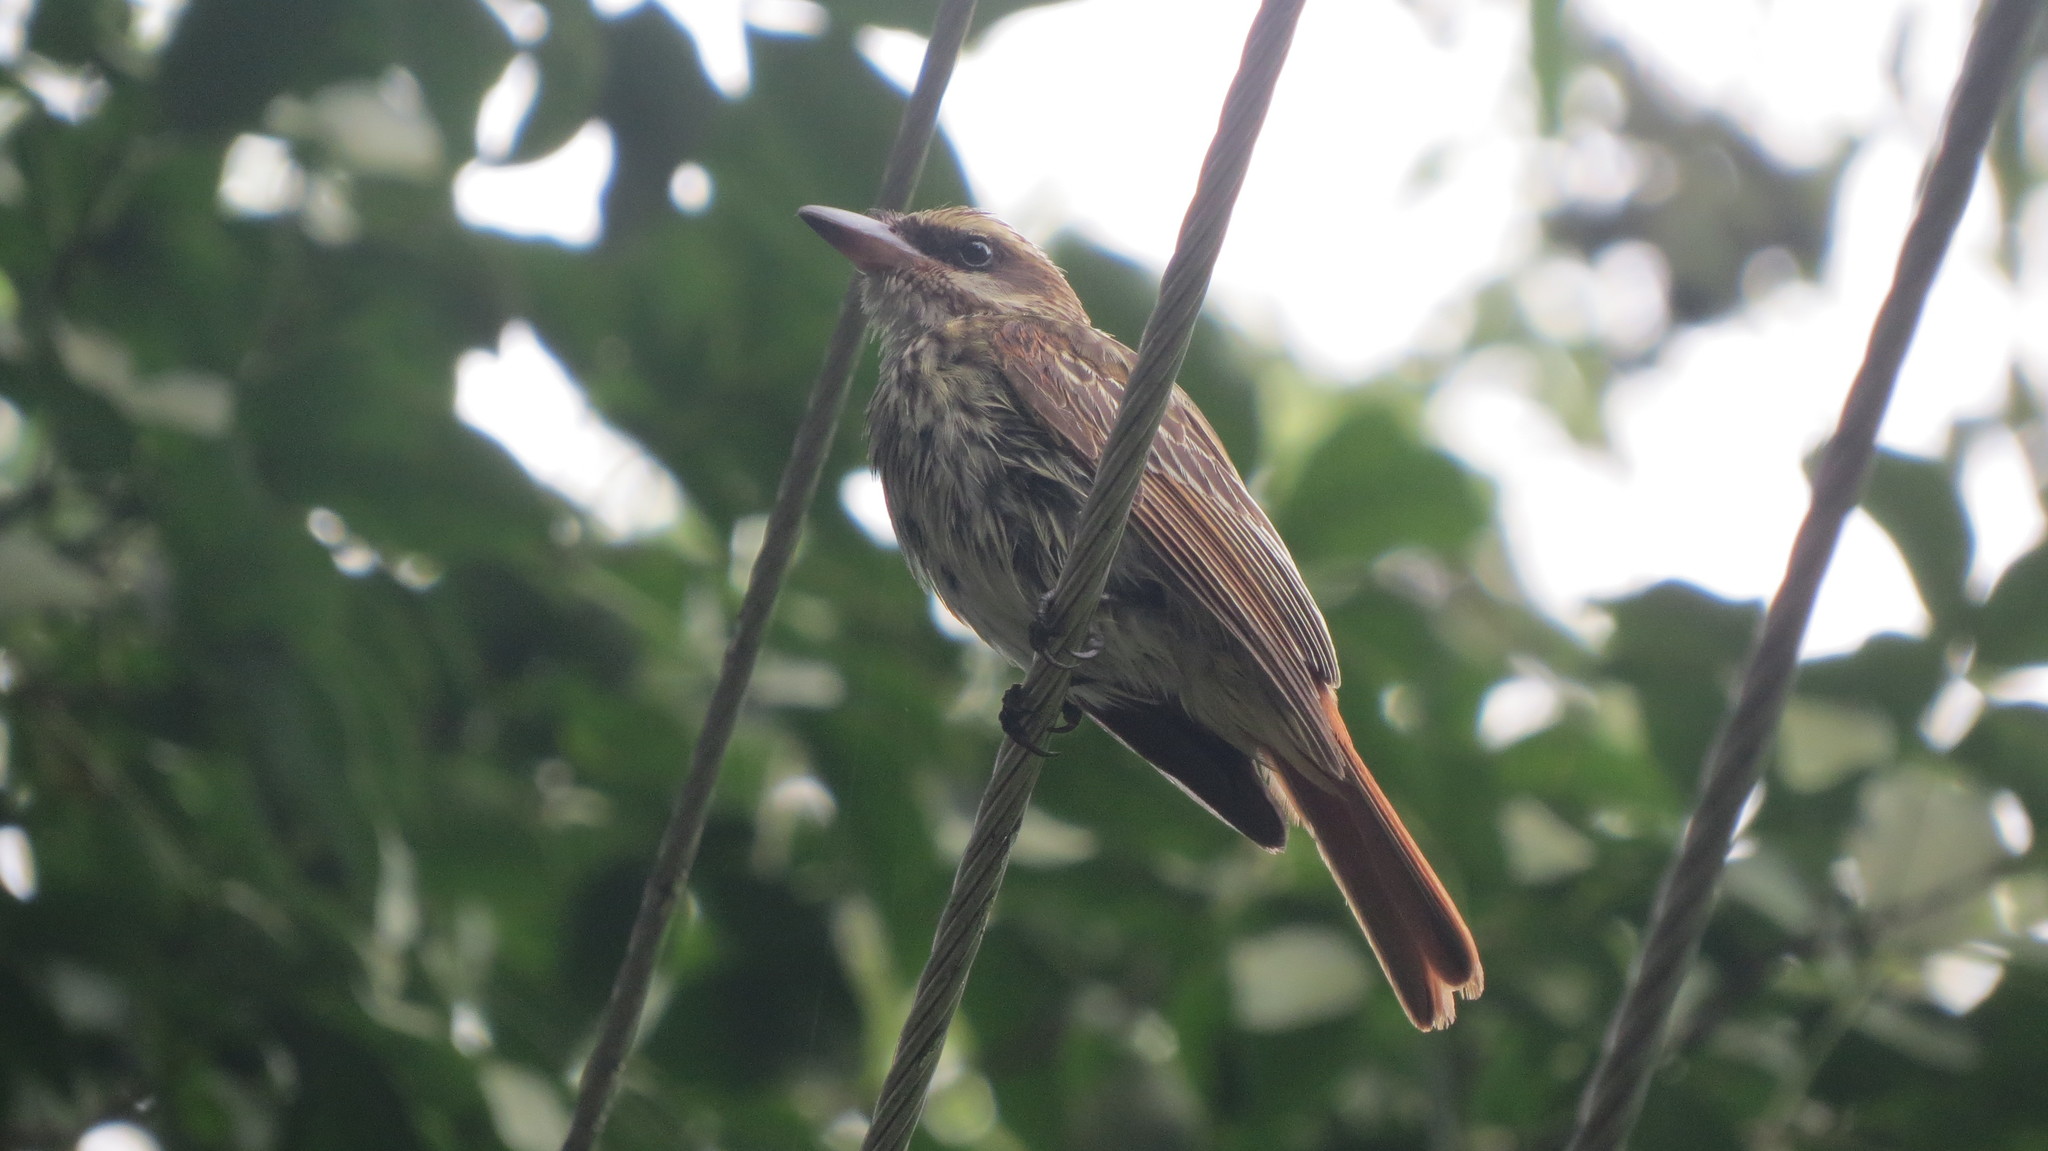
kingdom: Animalia
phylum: Chordata
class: Aves
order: Passeriformes
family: Tyrannidae
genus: Myiodynastes
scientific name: Myiodynastes maculatus
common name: Streaked flycatcher
